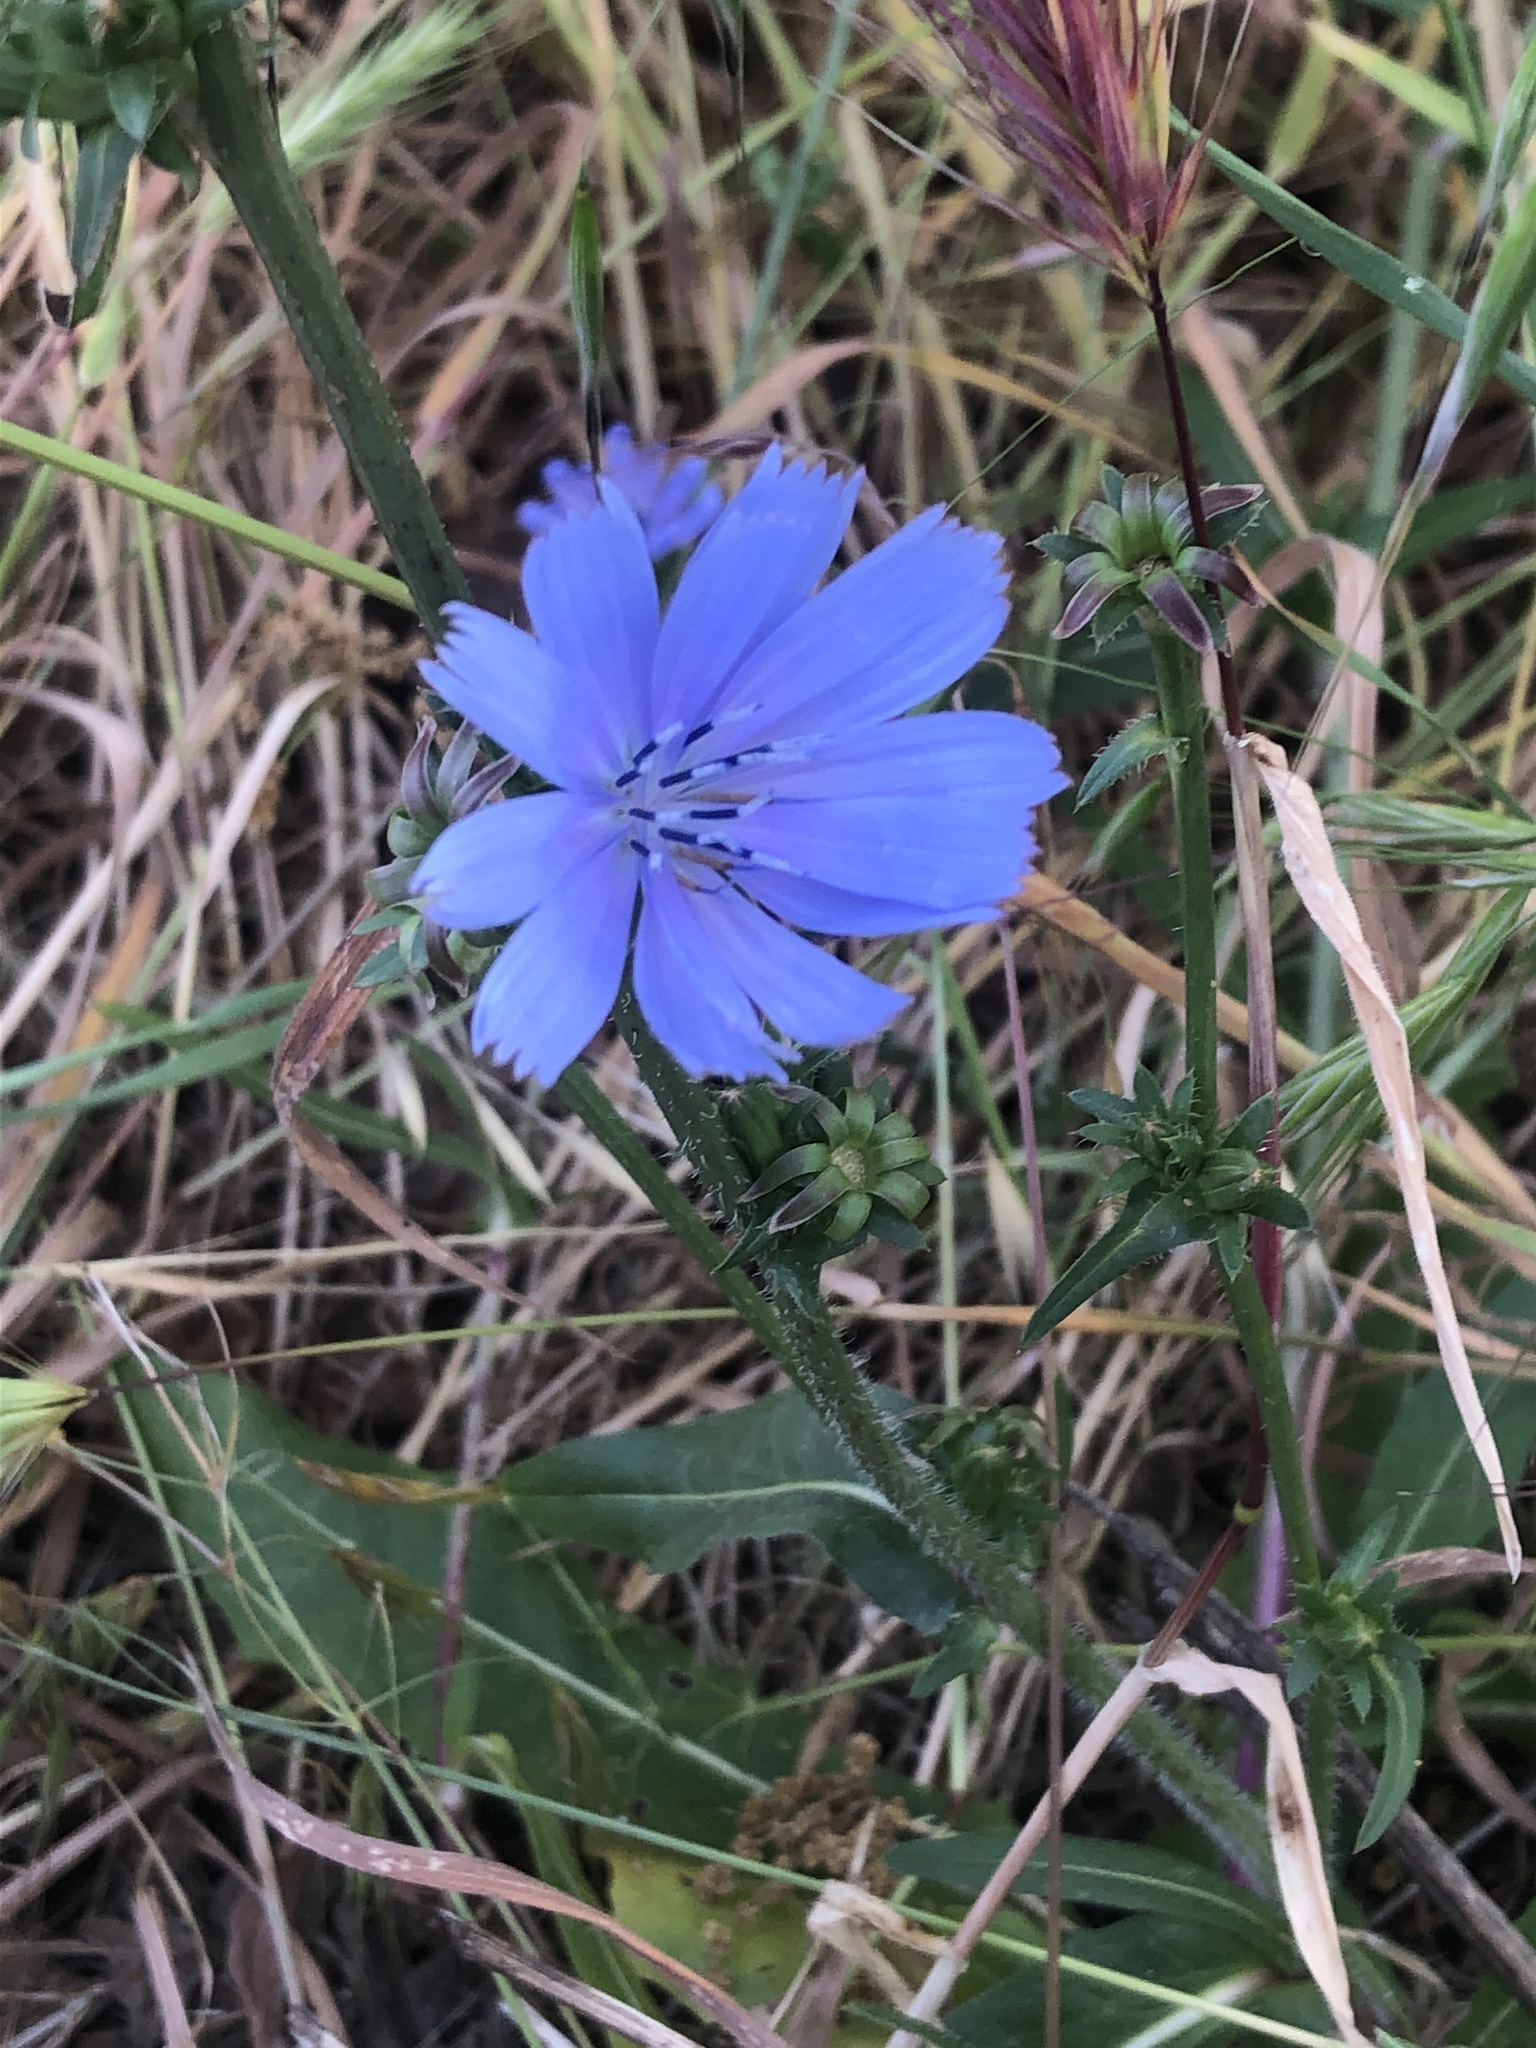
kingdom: Plantae
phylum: Tracheophyta
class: Magnoliopsida
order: Asterales
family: Asteraceae
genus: Cichorium
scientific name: Cichorium intybus
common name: Chicory
